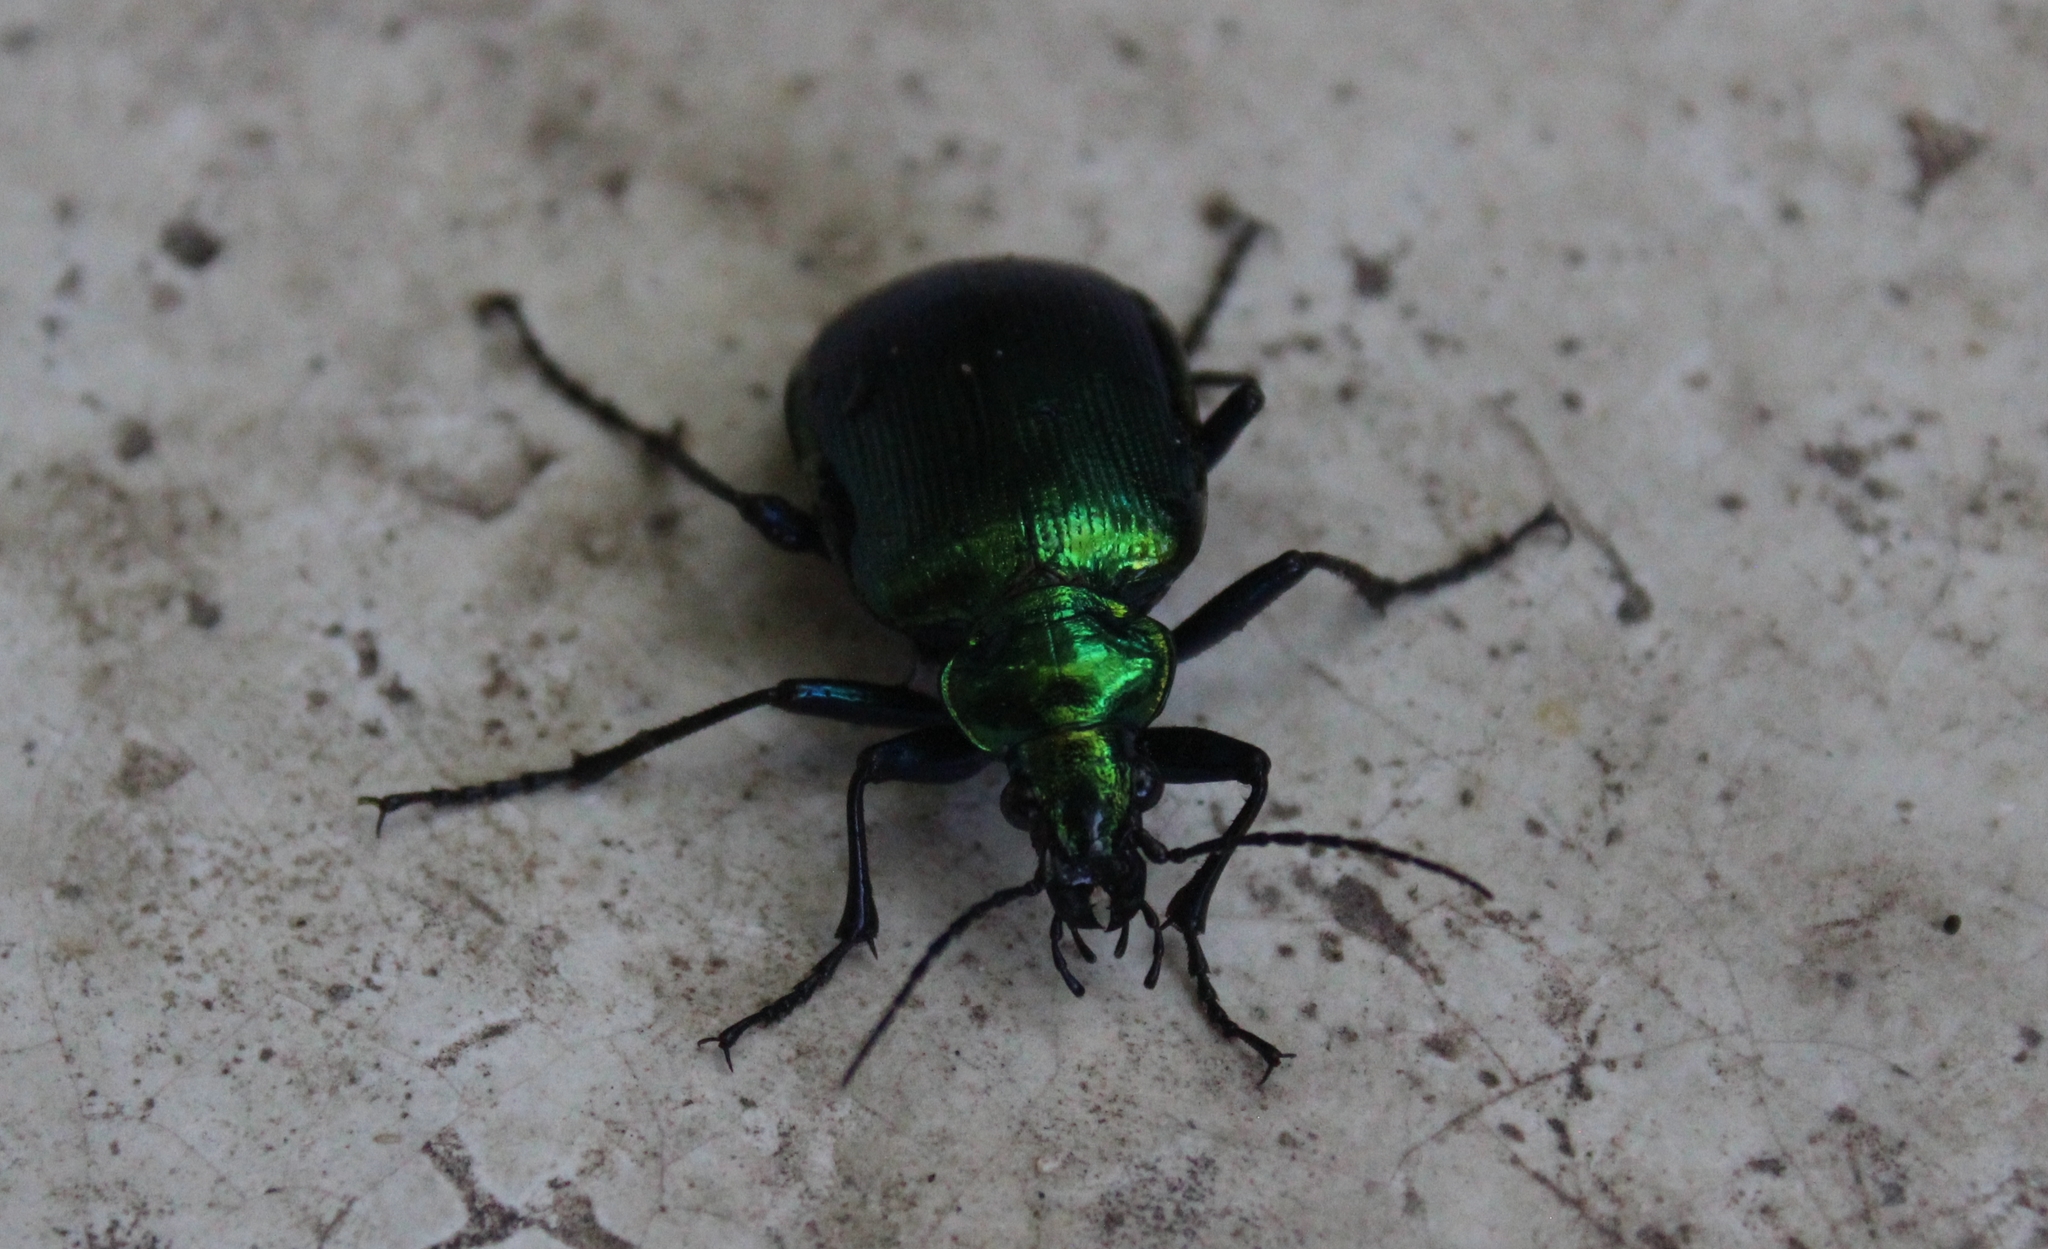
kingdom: Animalia
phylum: Arthropoda
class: Insecta
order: Coleoptera
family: Carabidae
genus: Calosoma
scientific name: Calosoma aurocinctum
